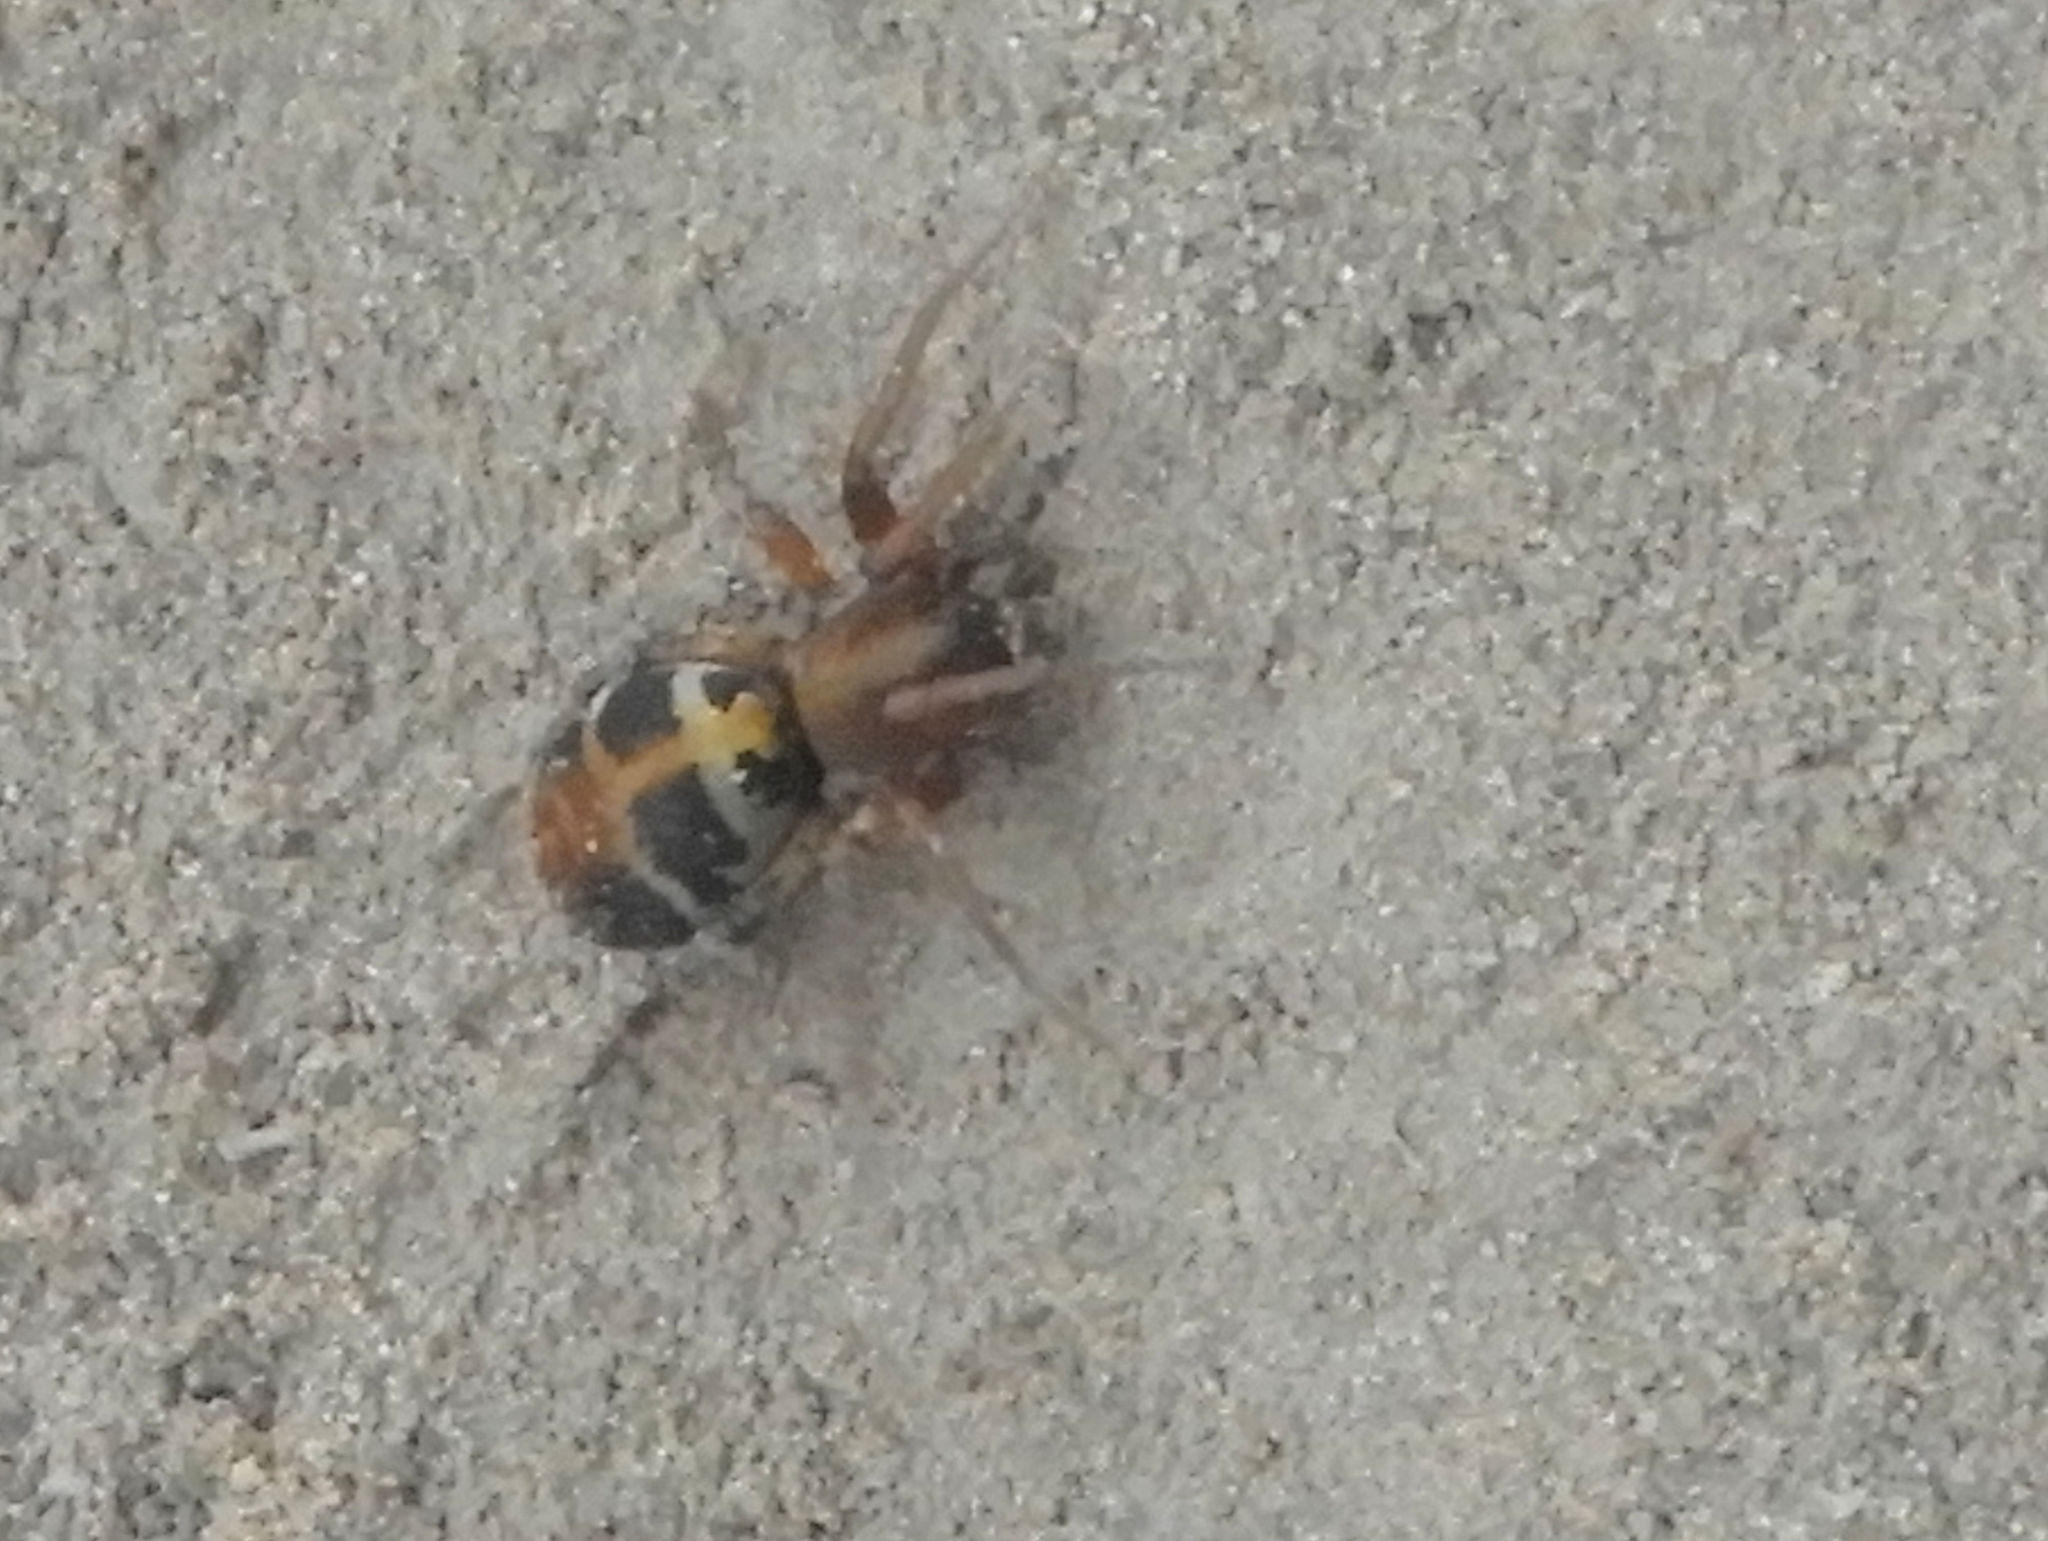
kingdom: Animalia
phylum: Arthropoda
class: Arachnida
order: Araneae
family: Corinnidae
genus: Castianeira
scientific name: Castianeira thalia
